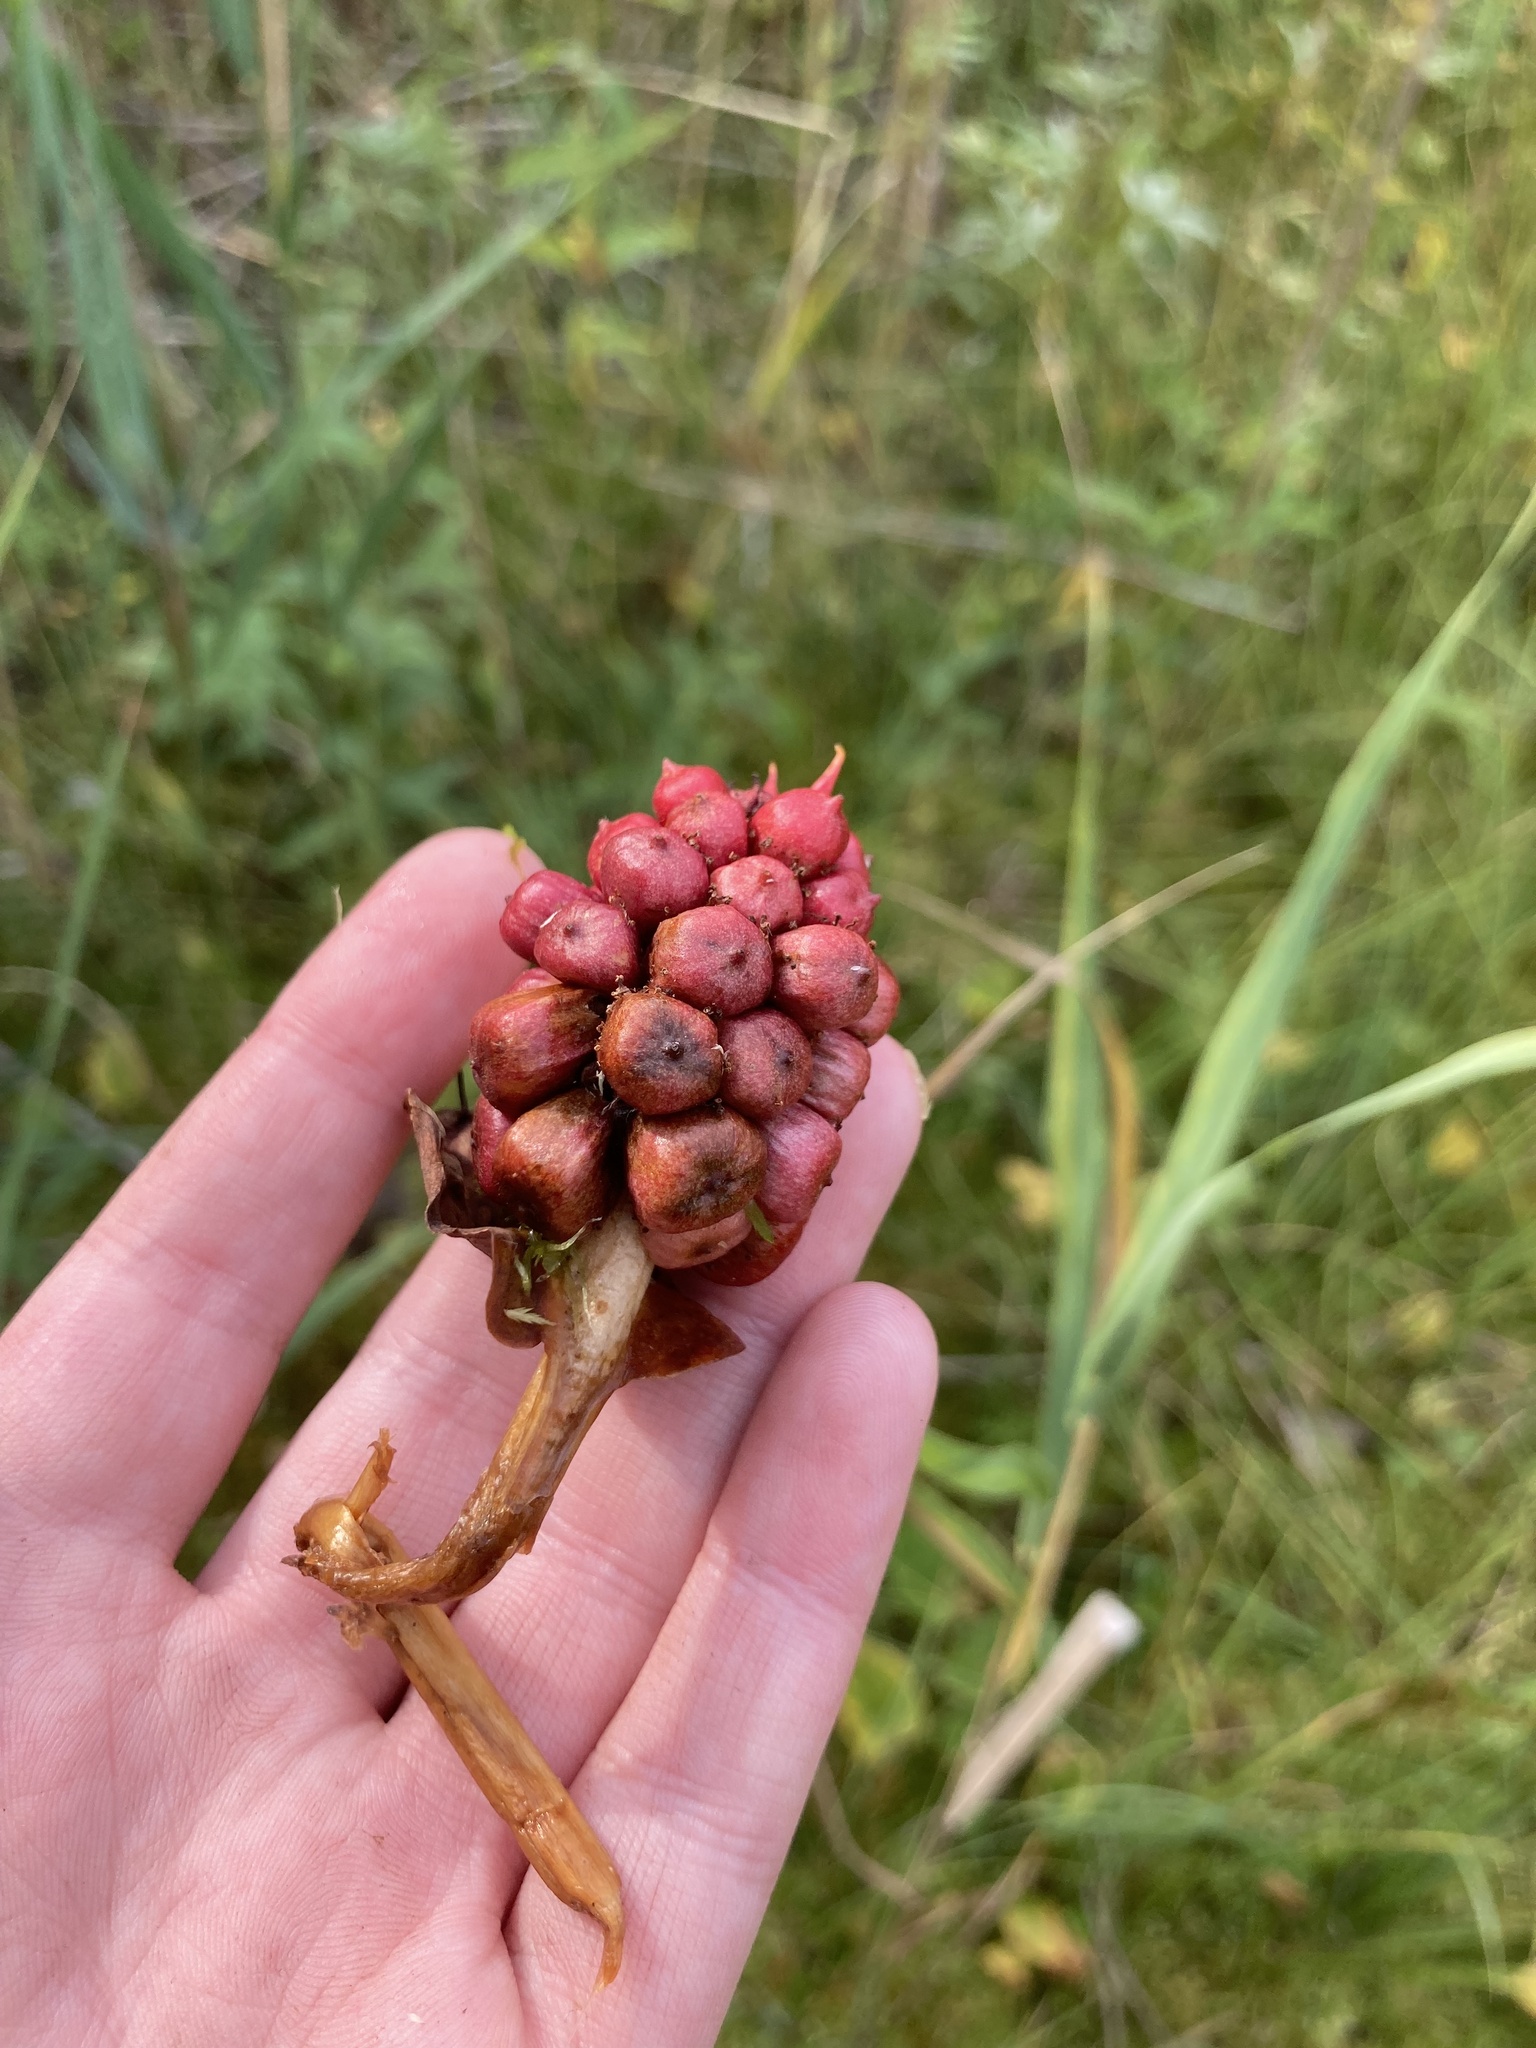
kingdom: Plantae
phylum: Tracheophyta
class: Liliopsida
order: Alismatales
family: Araceae
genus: Calla
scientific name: Calla palustris
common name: Bog arum
